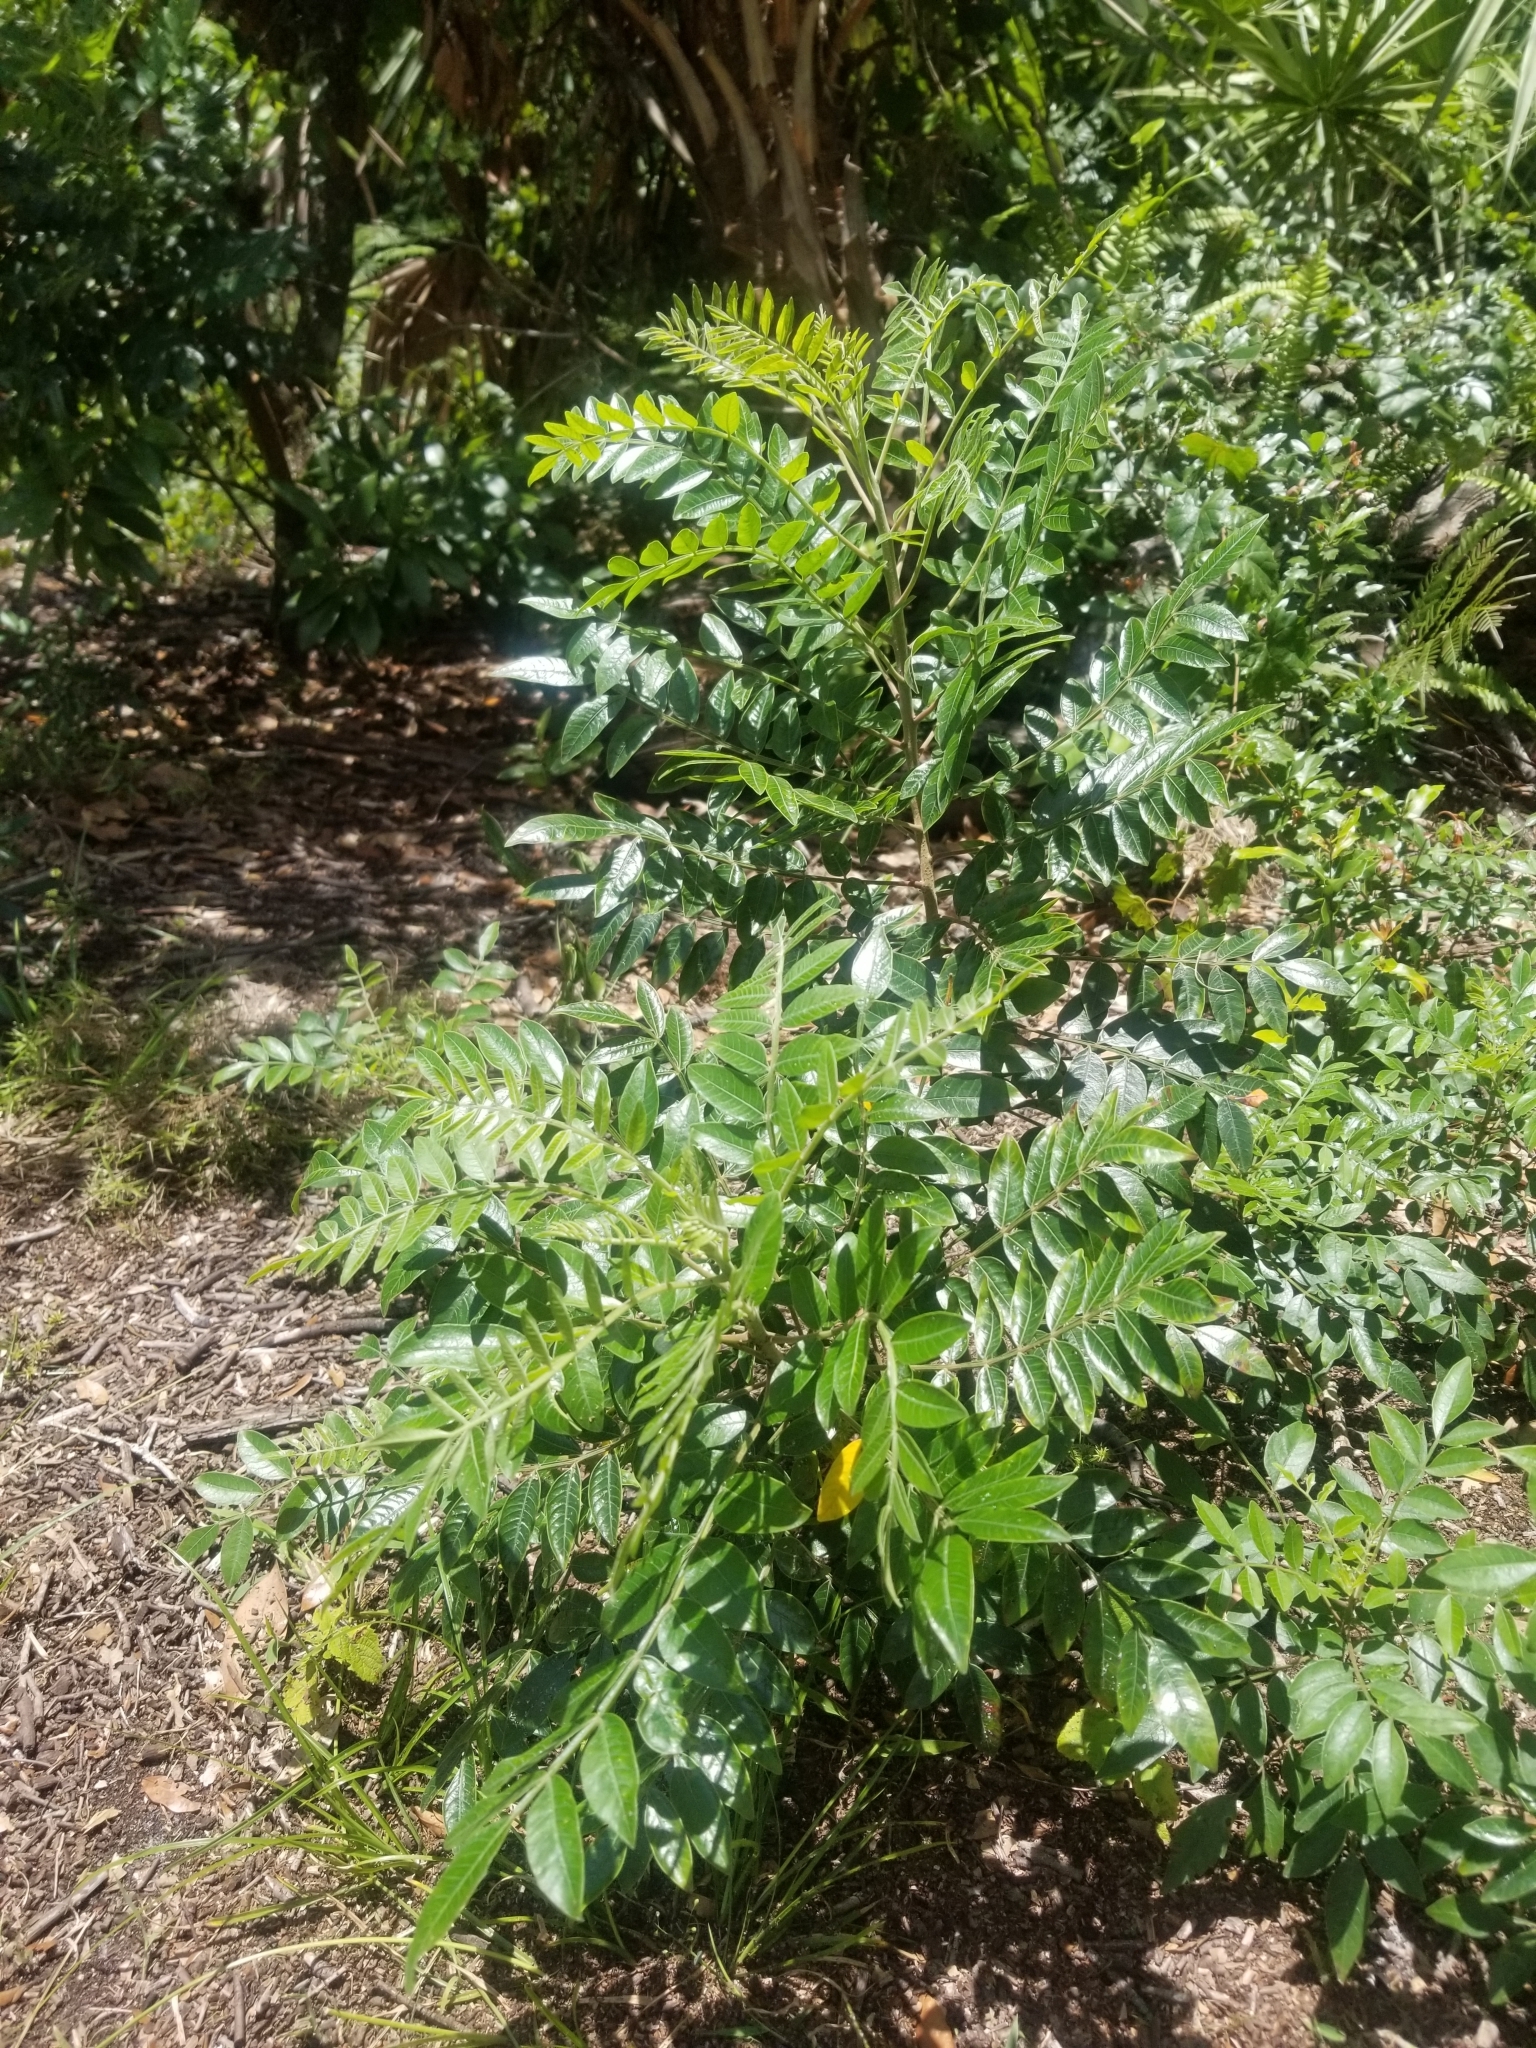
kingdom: Plantae
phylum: Tracheophyta
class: Magnoliopsida
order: Sapindales
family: Anacardiaceae
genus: Rhus
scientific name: Rhus copallina
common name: Shining sumac
